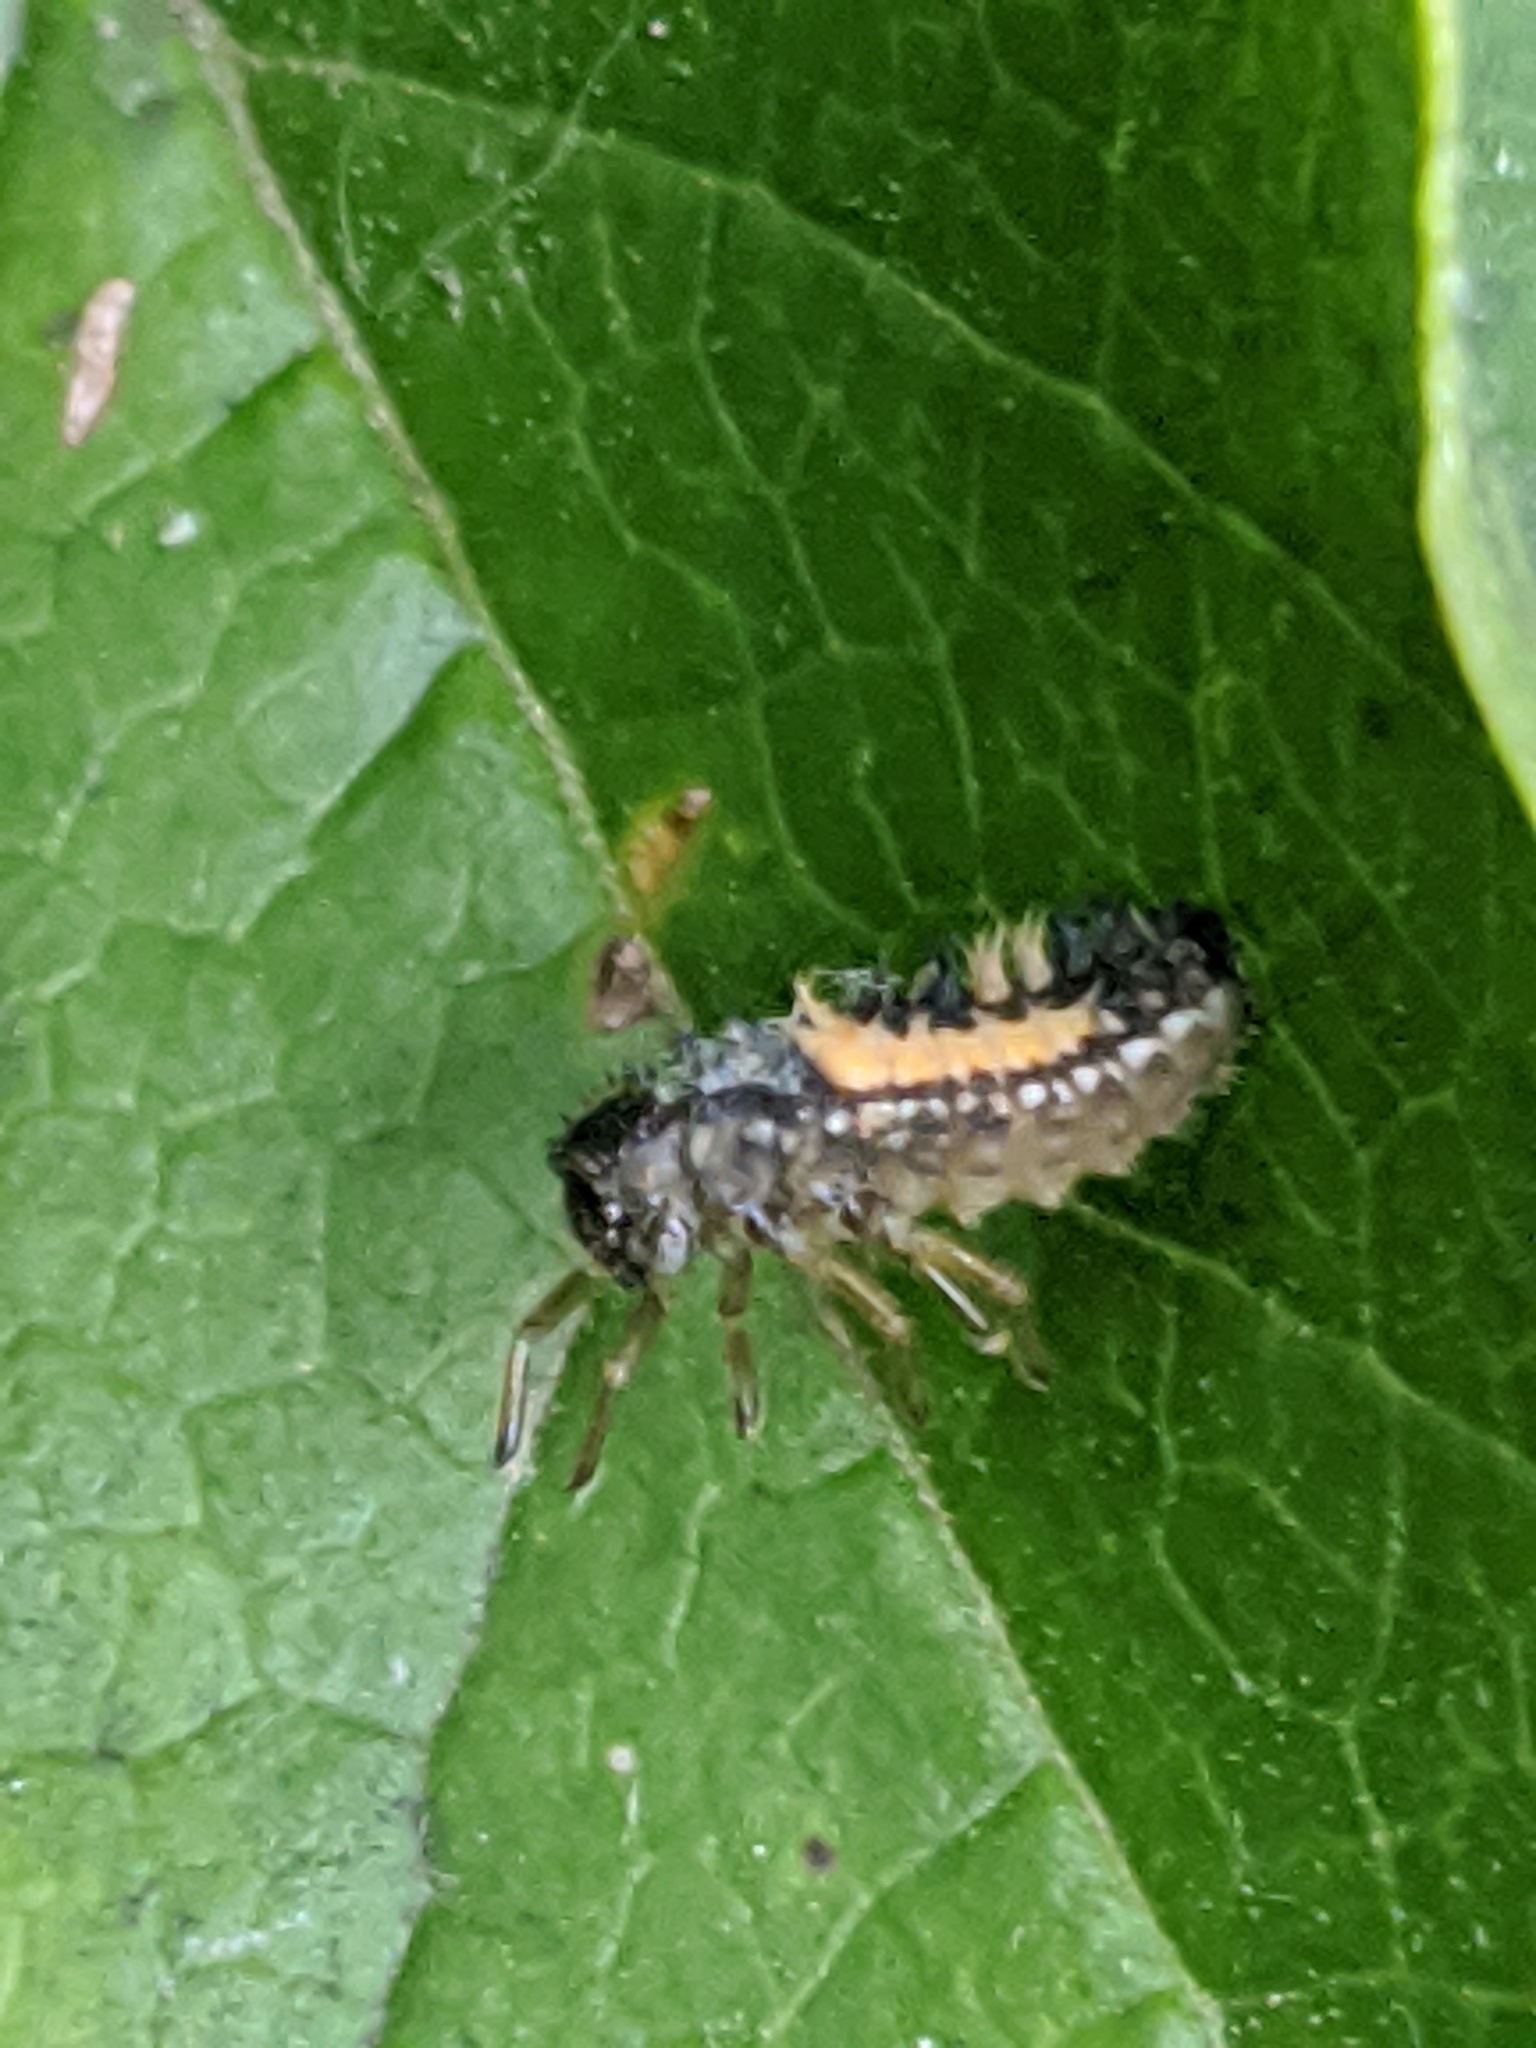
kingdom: Animalia
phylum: Arthropoda
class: Insecta
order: Coleoptera
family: Coccinellidae
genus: Harmonia
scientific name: Harmonia axyridis
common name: Harlequin ladybird
